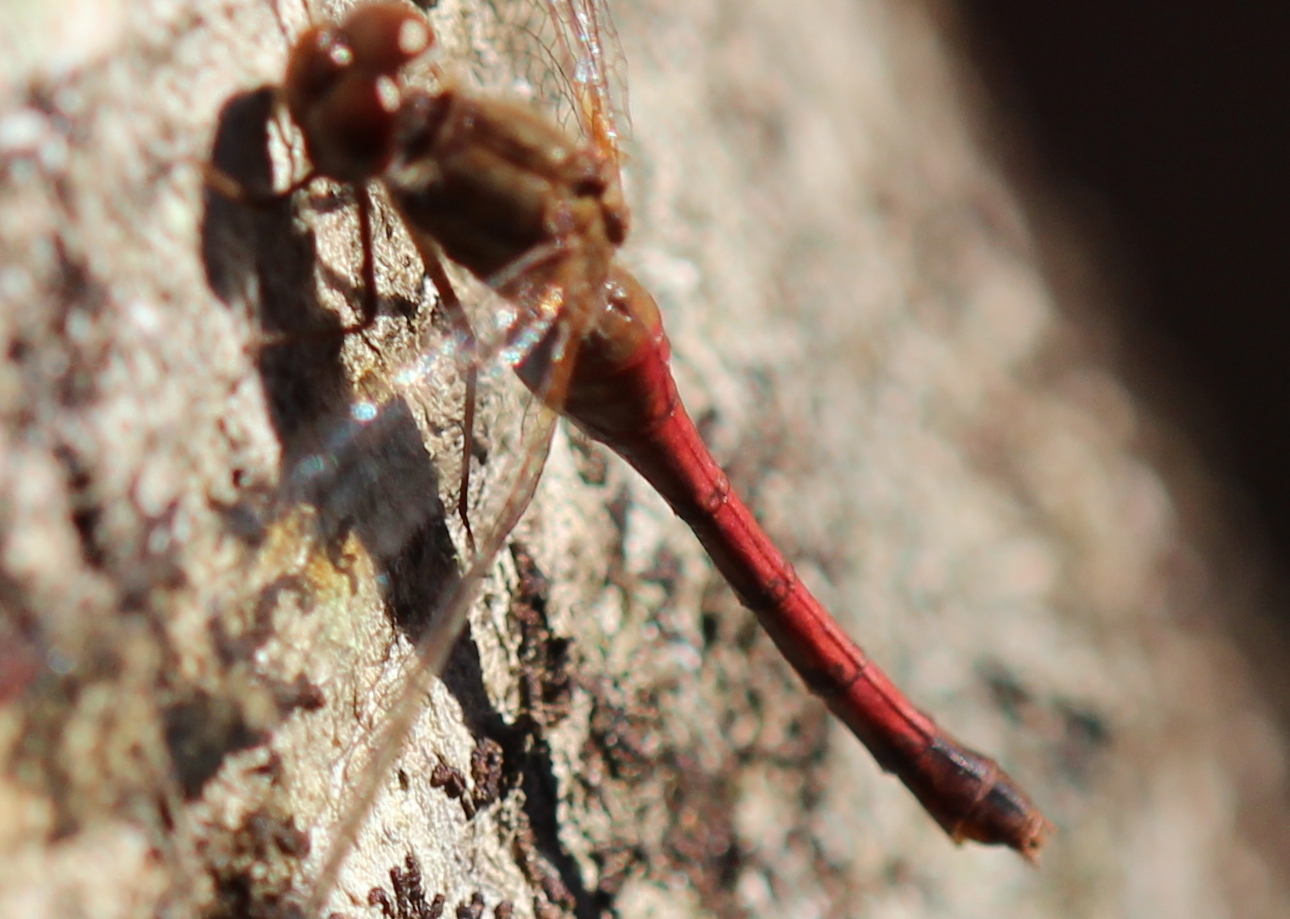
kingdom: Animalia
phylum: Arthropoda
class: Insecta
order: Odonata
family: Libellulidae
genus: Sympetrum
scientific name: Sympetrum vicinum
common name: Autumn meadowhawk
